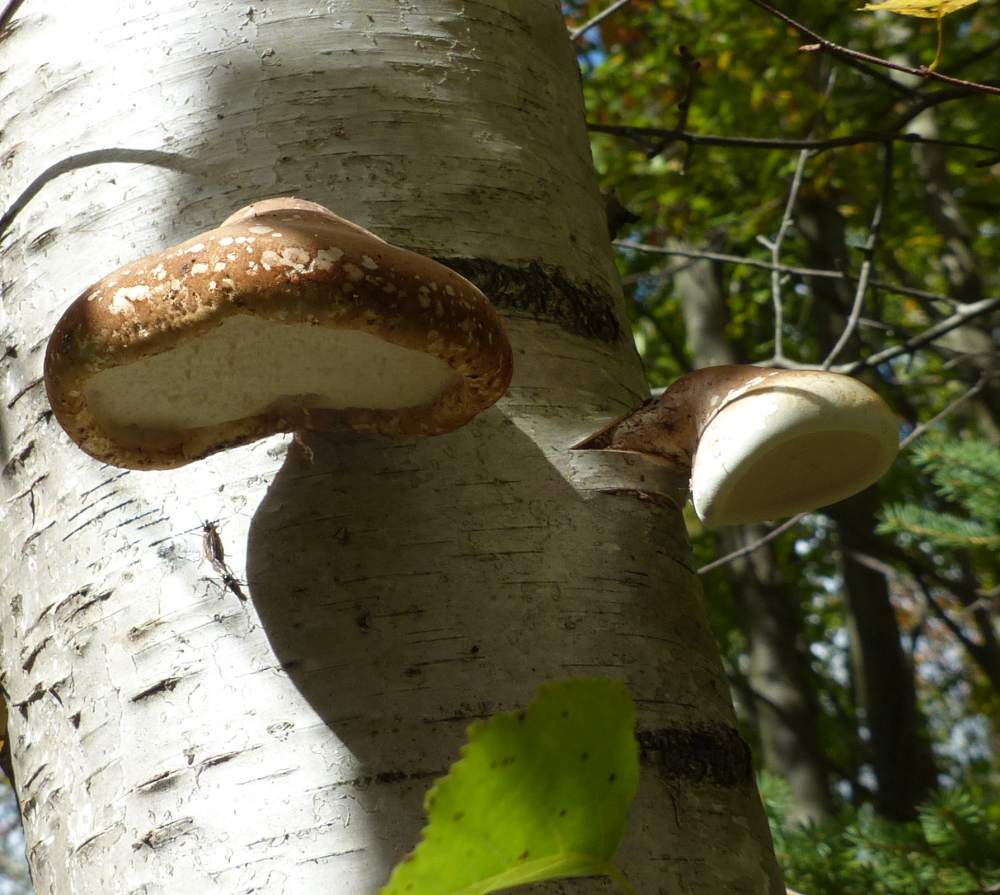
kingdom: Fungi
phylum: Basidiomycota
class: Agaricomycetes
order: Polyporales
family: Fomitopsidaceae
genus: Fomitopsis
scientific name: Fomitopsis betulina
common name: Birch polypore
